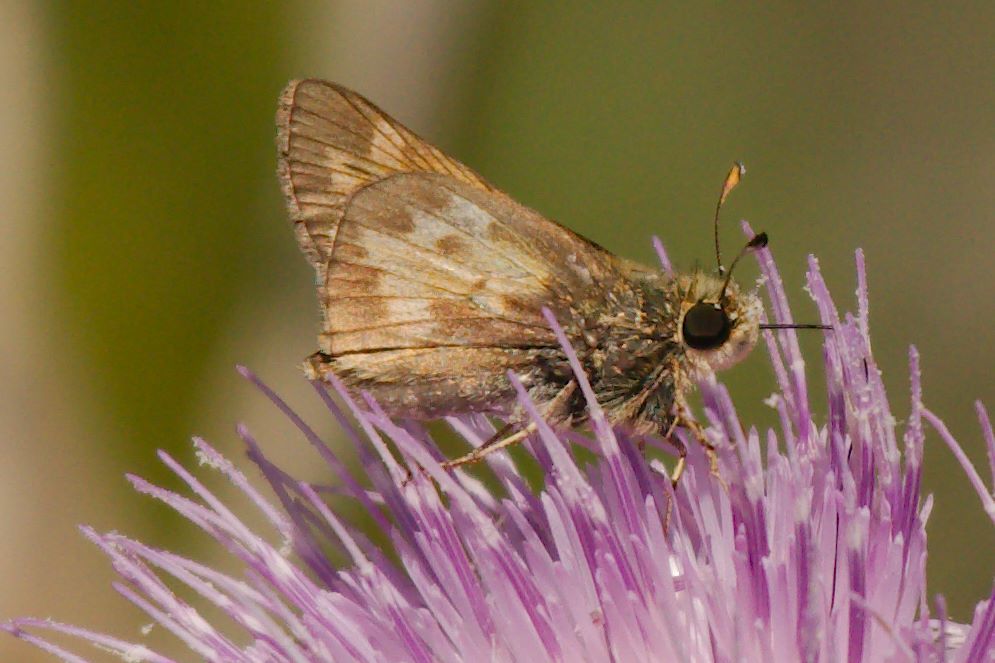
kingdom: Animalia
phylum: Arthropoda
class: Insecta
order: Lepidoptera
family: Hesperiidae
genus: Atalopedes
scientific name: Atalopedes
